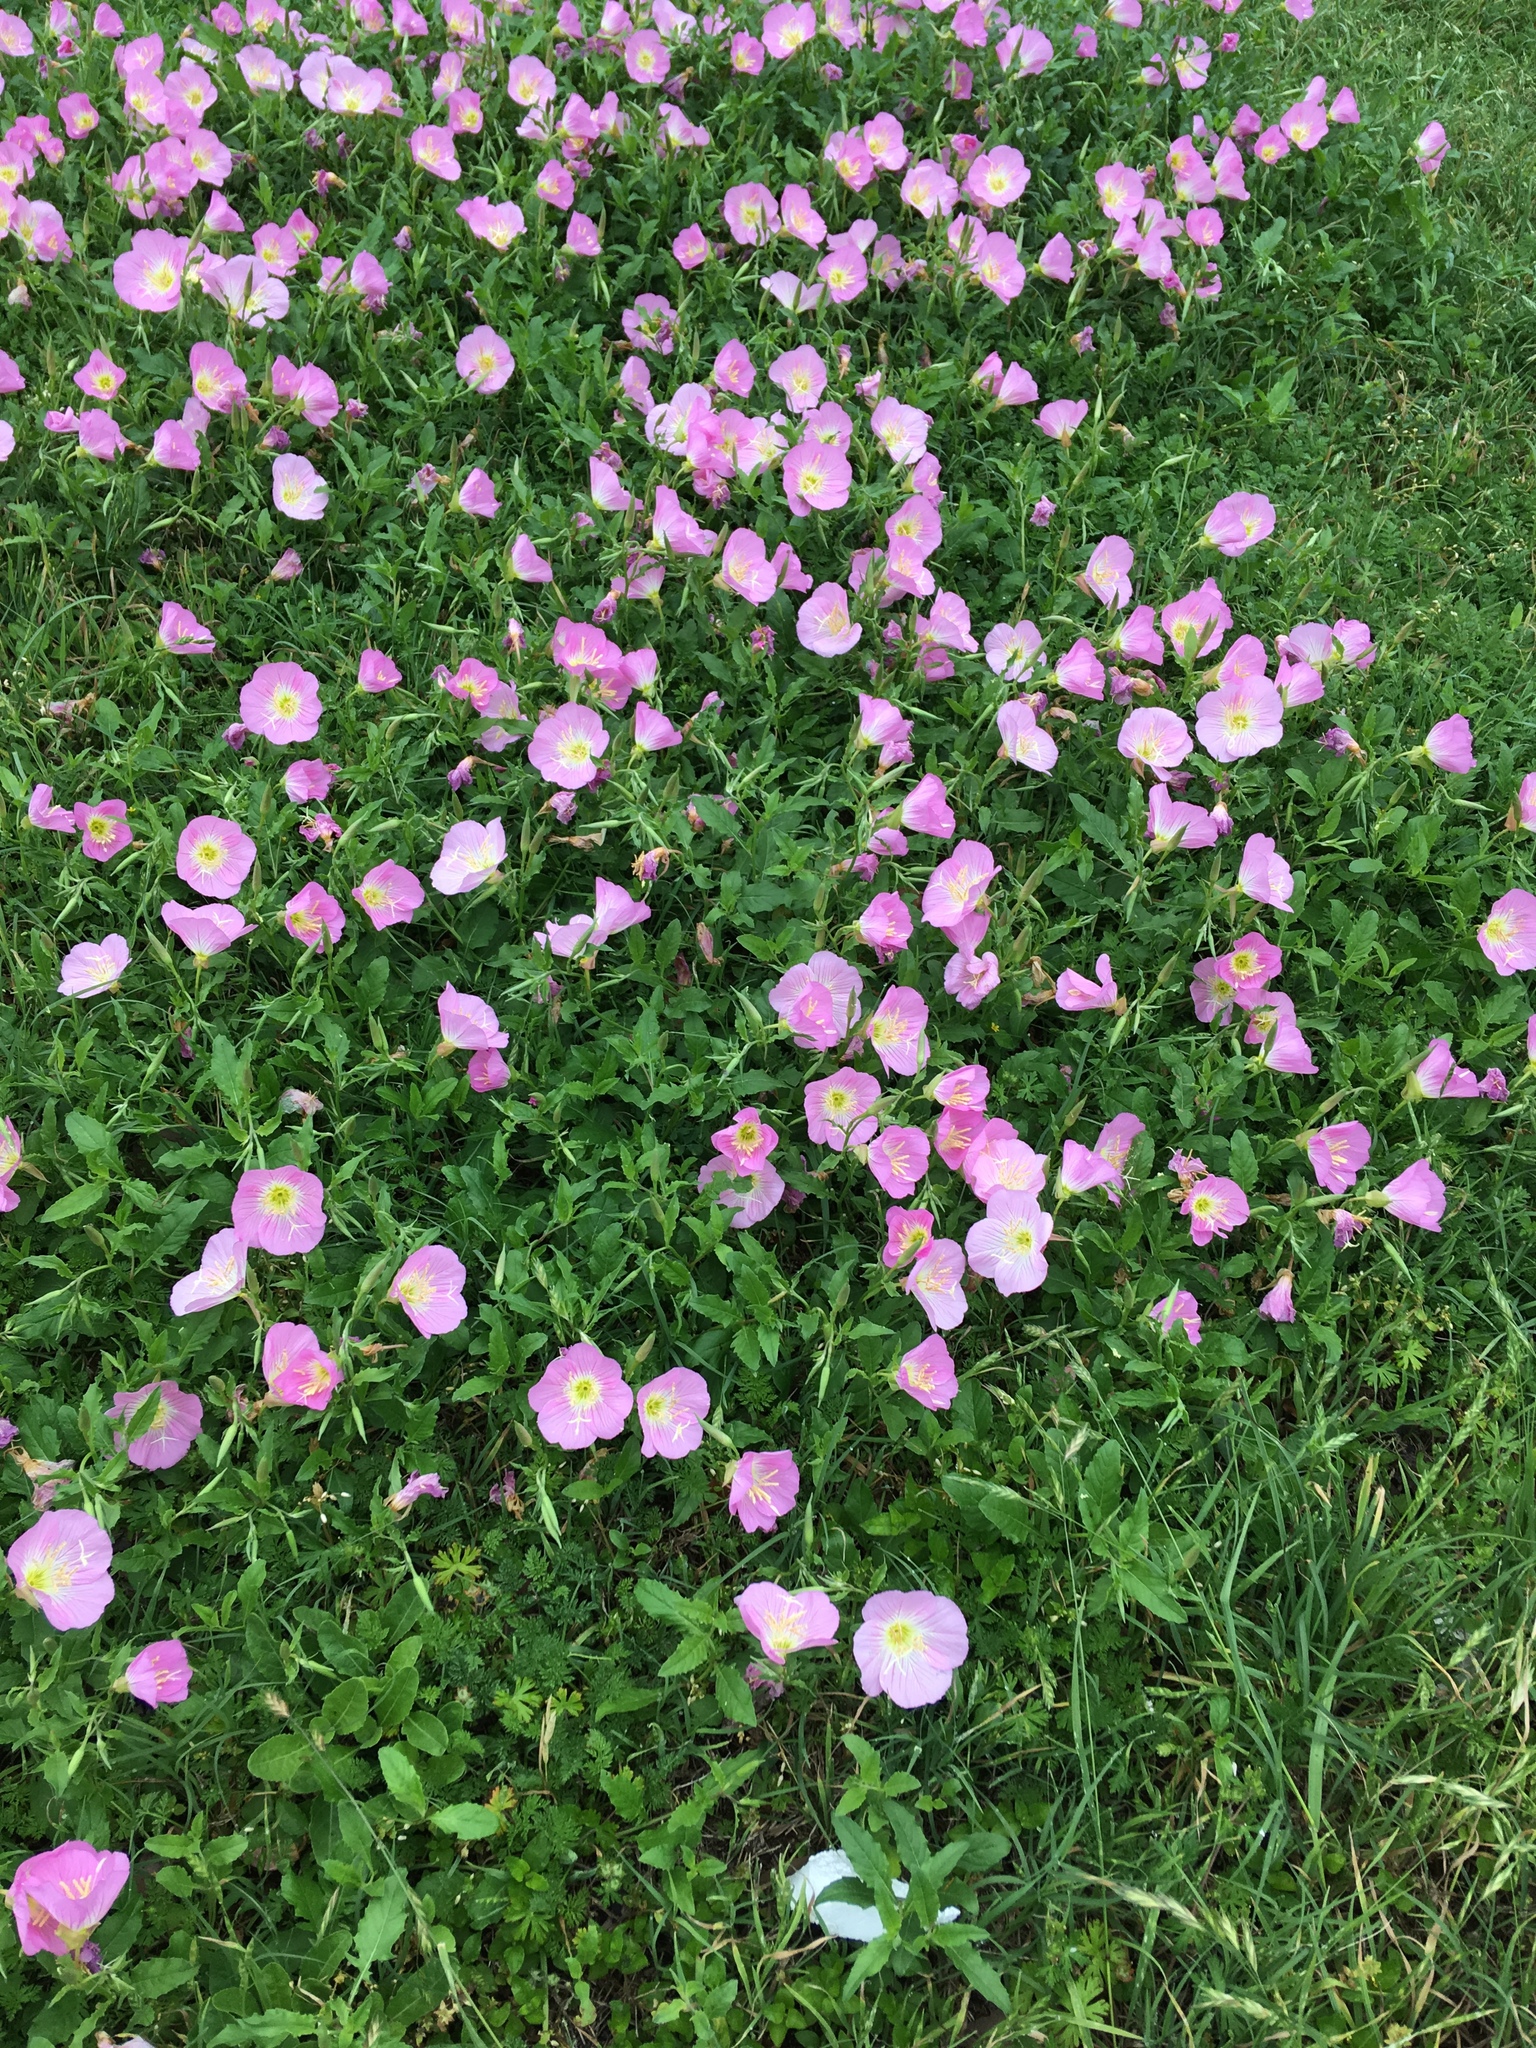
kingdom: Plantae
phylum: Tracheophyta
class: Magnoliopsida
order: Myrtales
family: Onagraceae
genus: Oenothera
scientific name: Oenothera speciosa
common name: White evening-primrose
